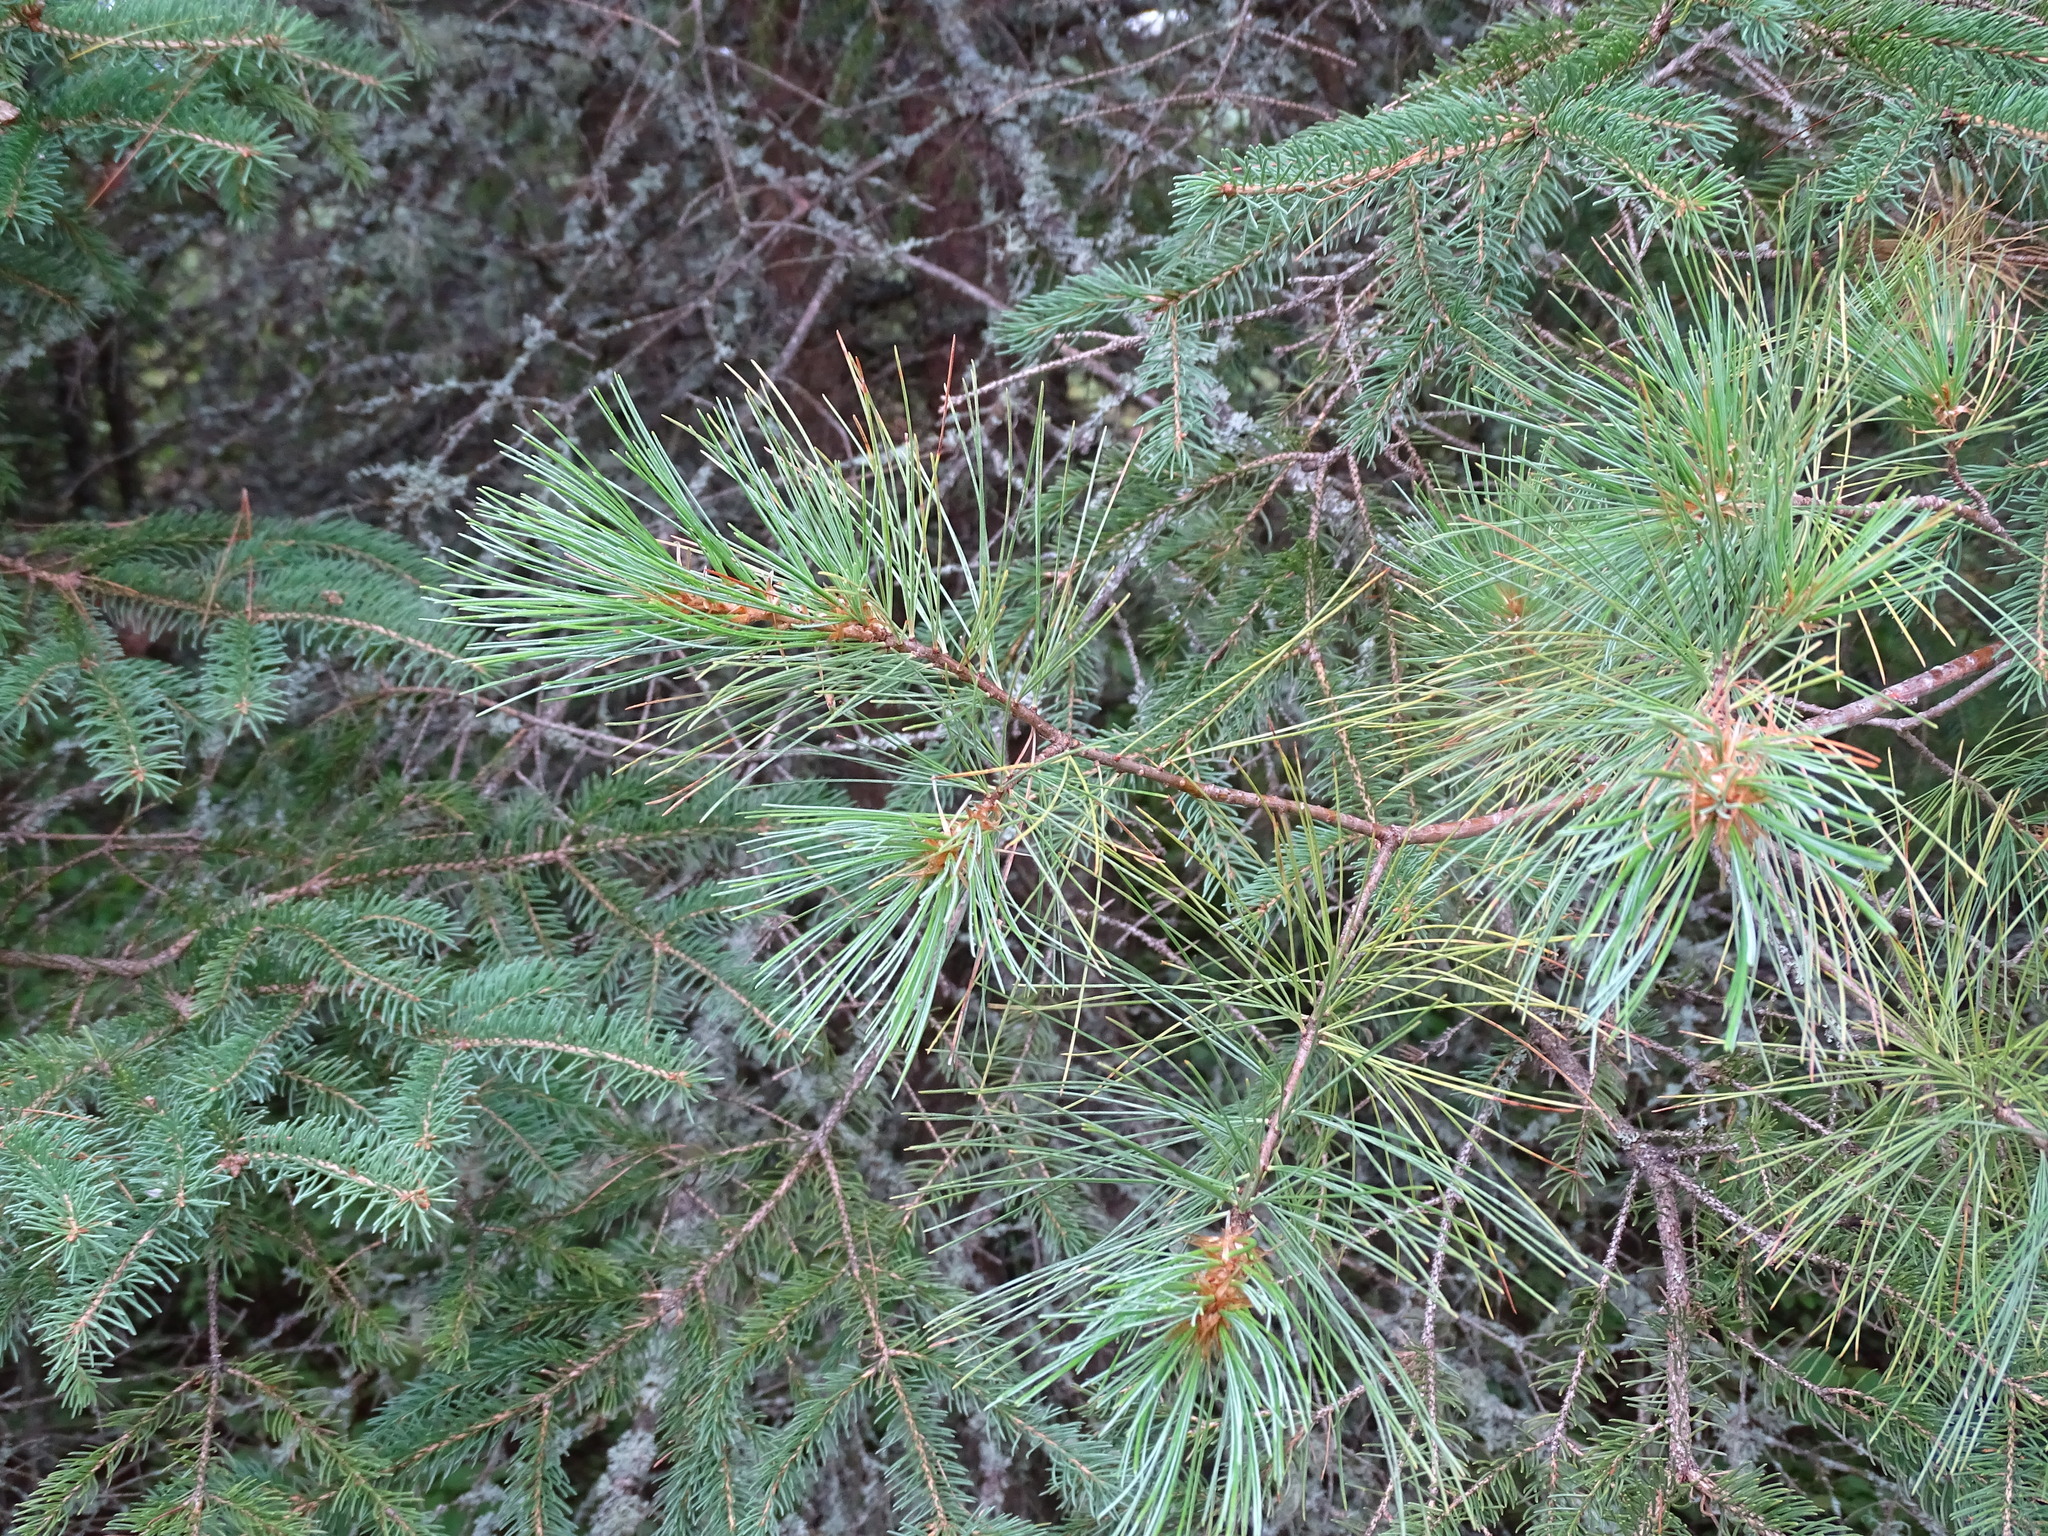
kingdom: Plantae
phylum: Tracheophyta
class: Pinopsida
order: Pinales
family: Pinaceae
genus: Pinus
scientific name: Pinus strobus
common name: Weymouth pine
